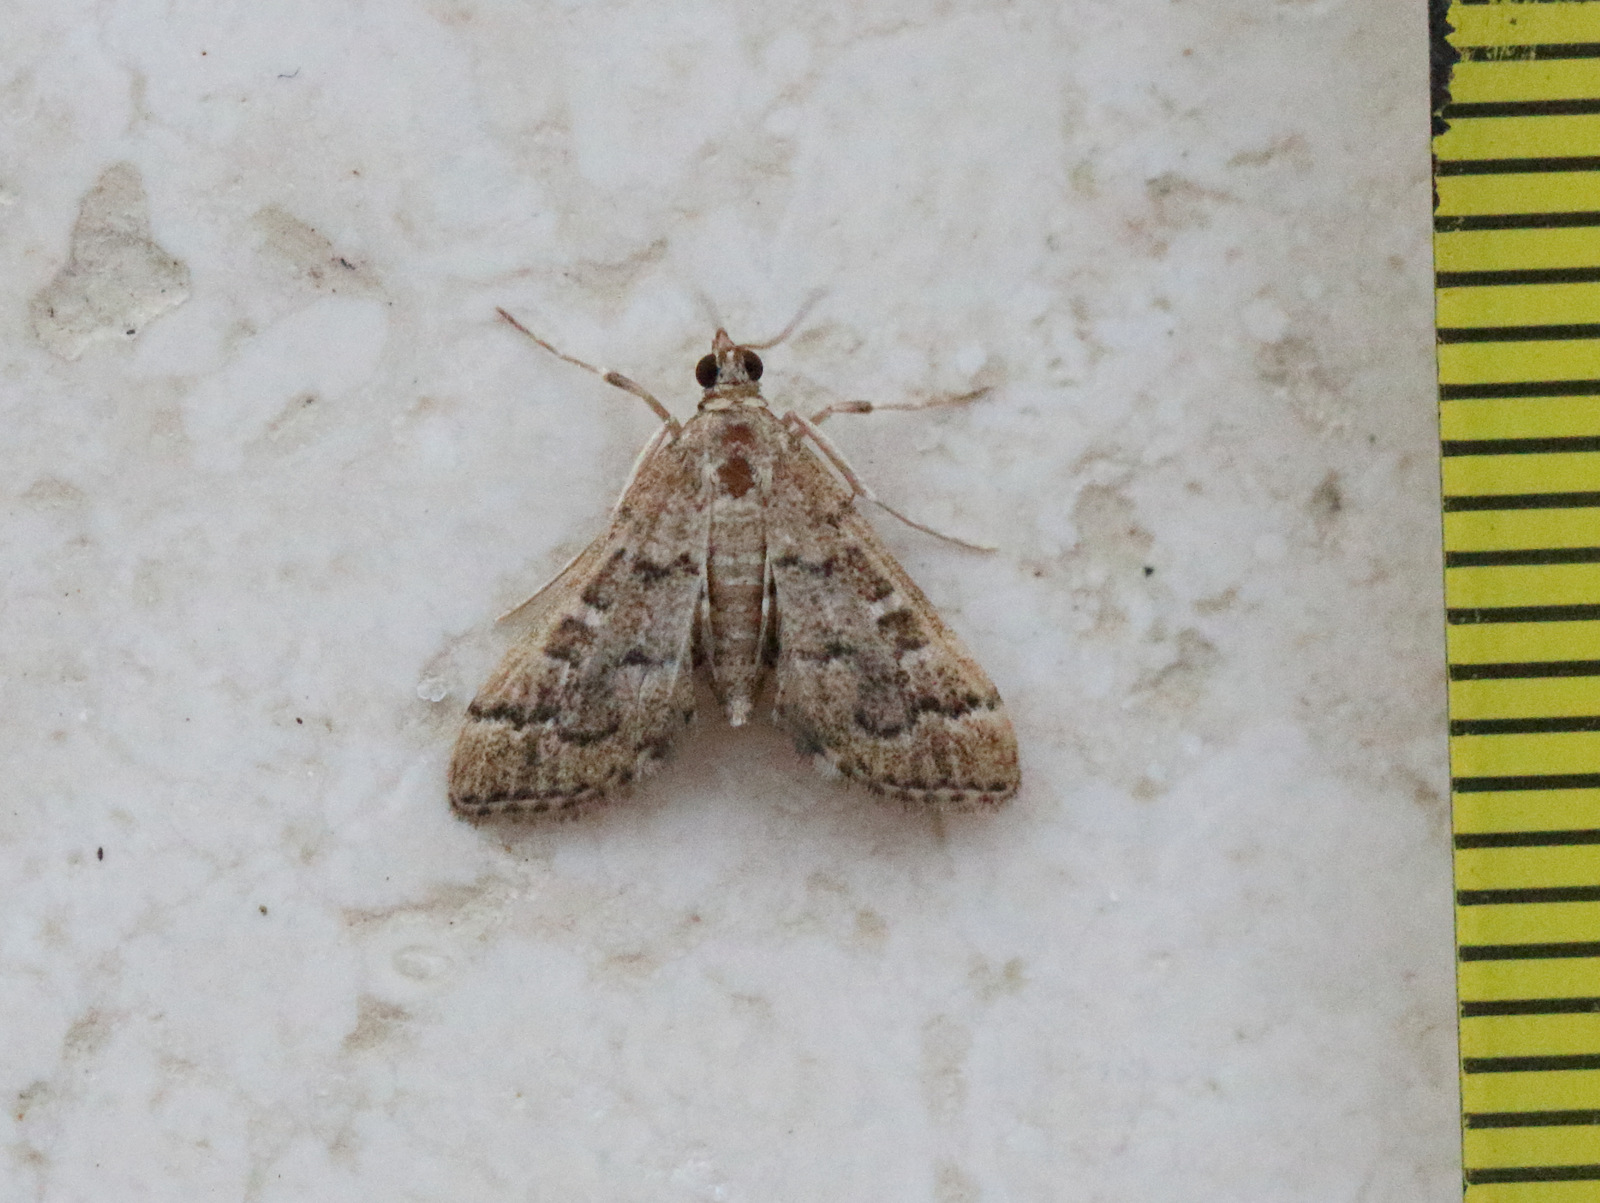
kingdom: Animalia
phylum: Arthropoda
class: Insecta
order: Lepidoptera
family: Crambidae
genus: Nacoleia
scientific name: Nacoleia rhoeoalis
